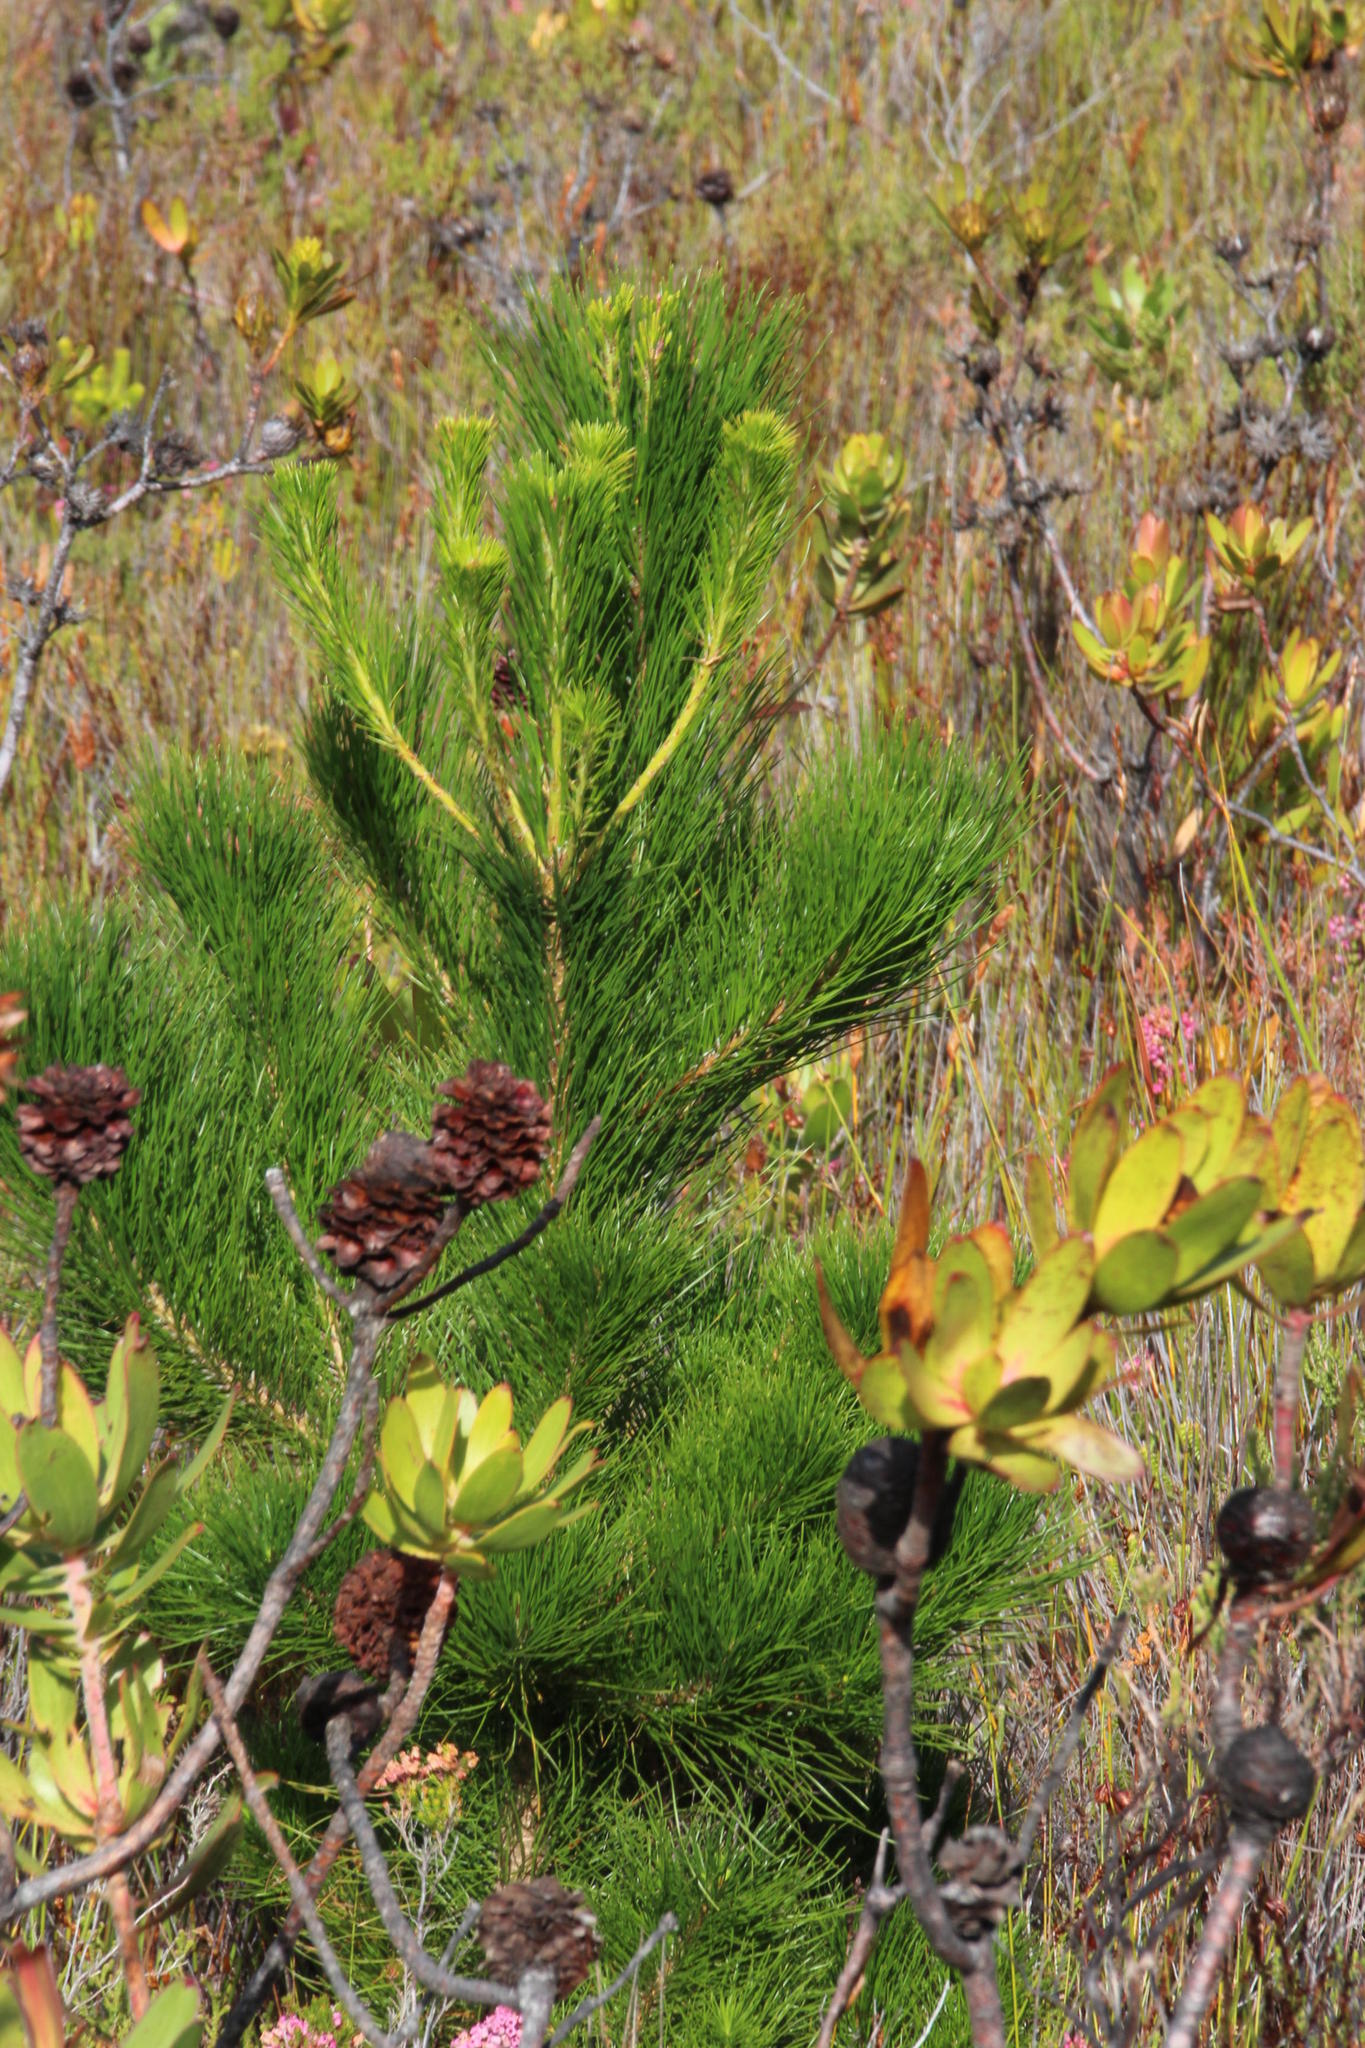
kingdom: Plantae
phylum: Tracheophyta
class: Pinopsida
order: Pinales
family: Pinaceae
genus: Pinus
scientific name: Pinus radiata
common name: Monterey pine
